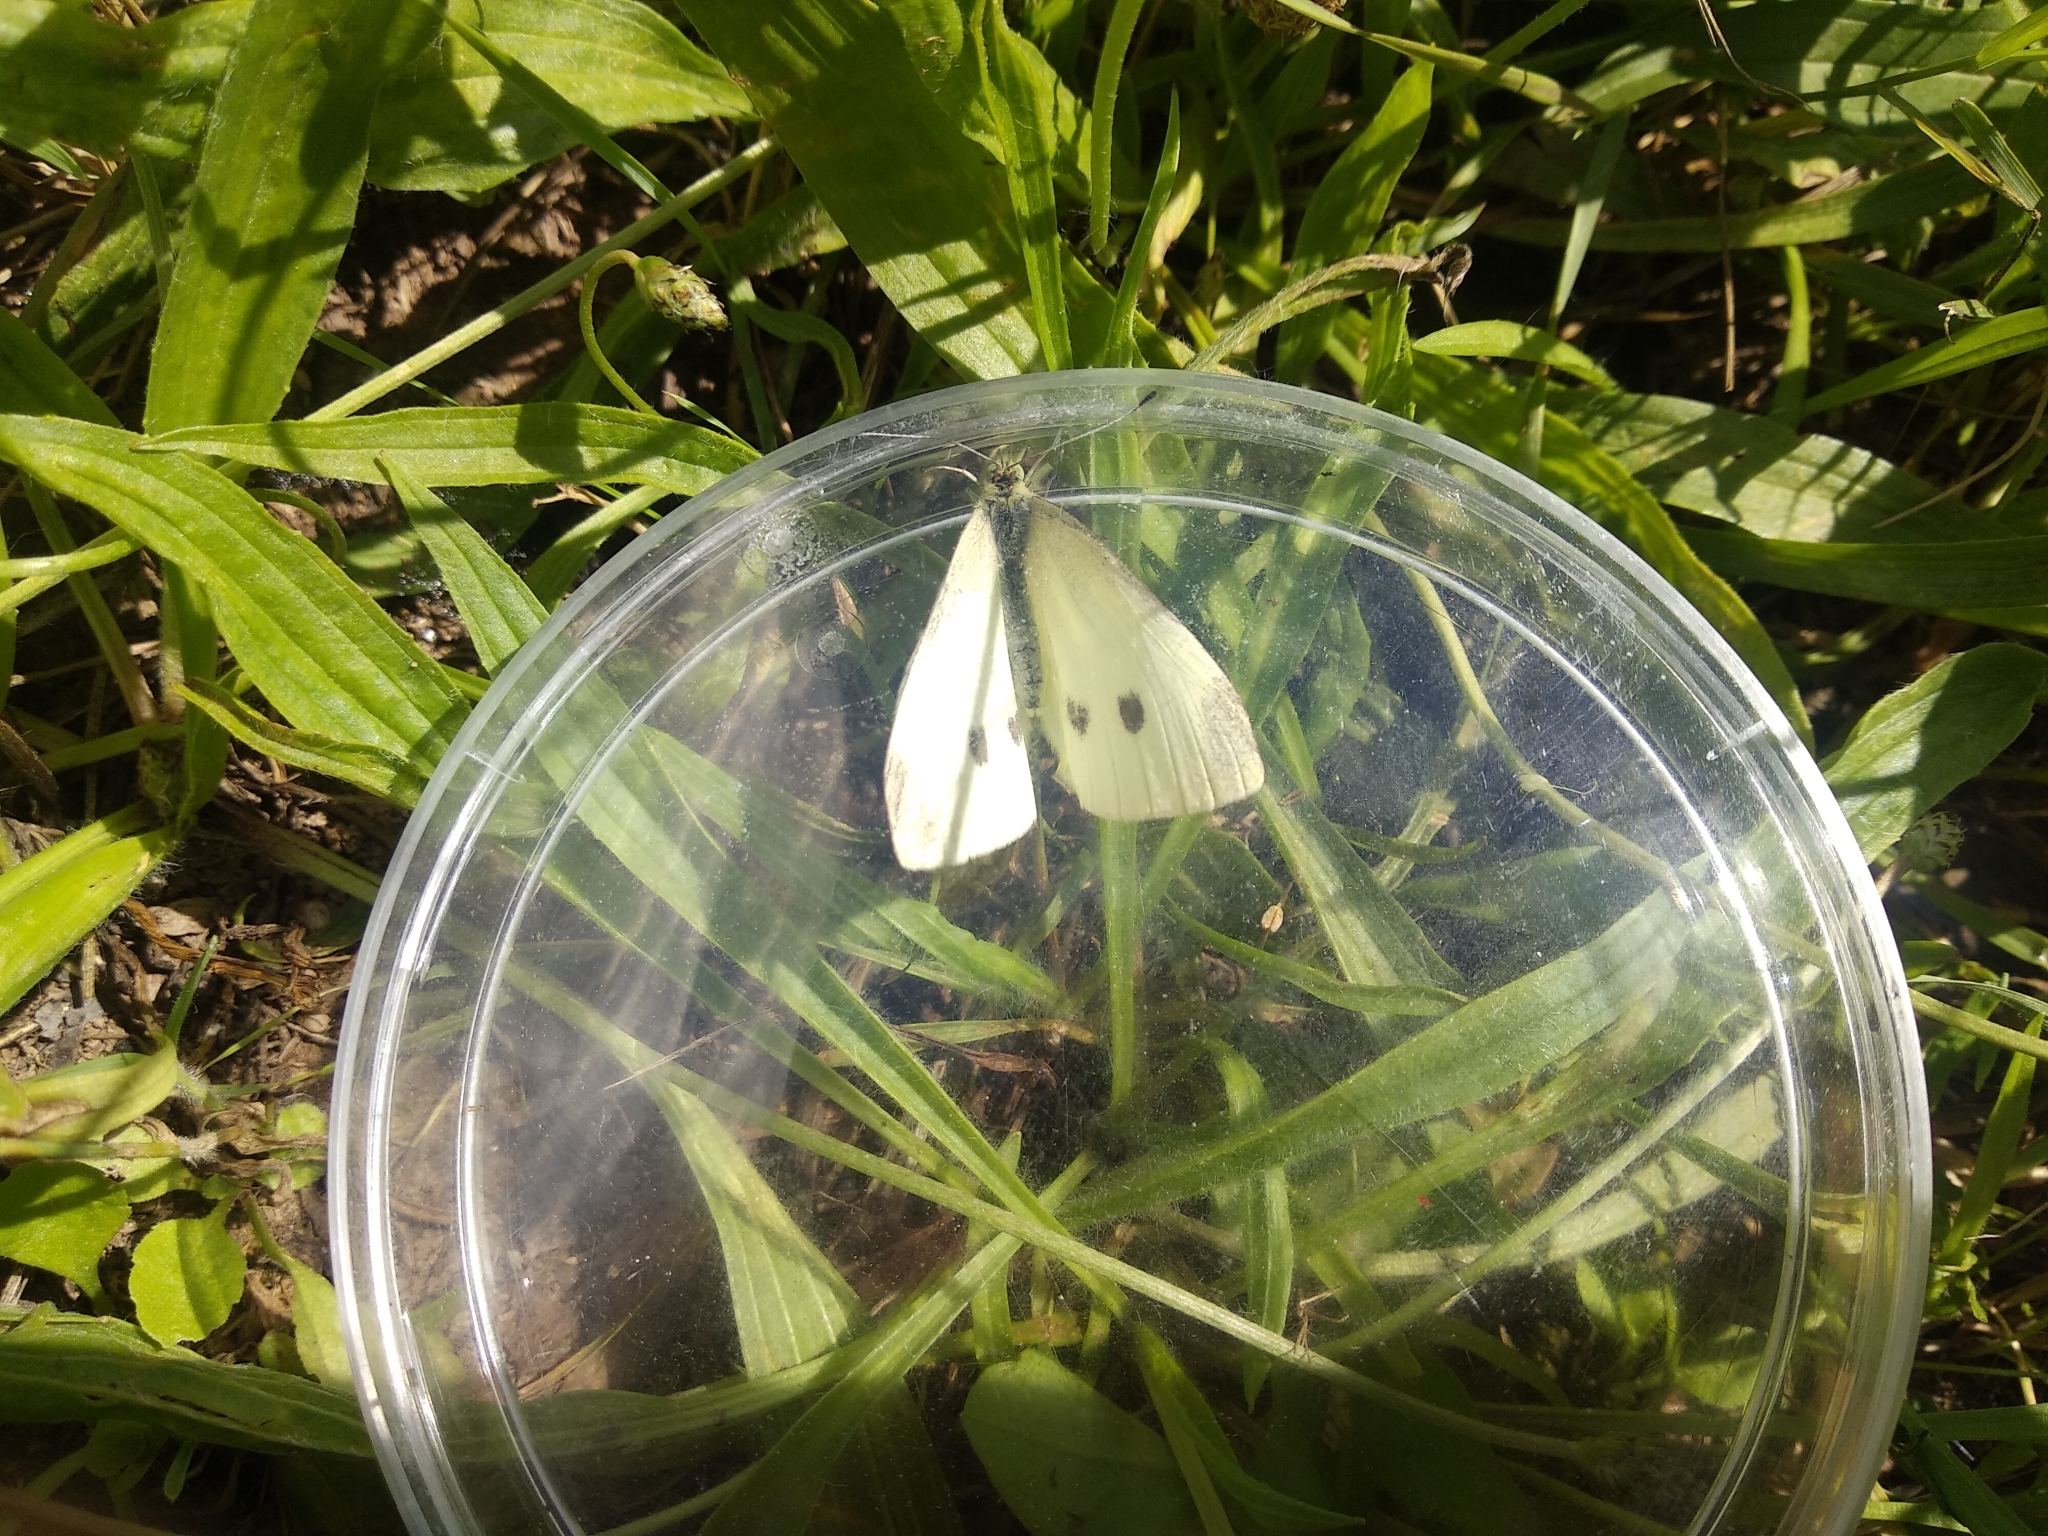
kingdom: Animalia
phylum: Arthropoda
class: Insecta
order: Lepidoptera
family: Pieridae
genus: Pieris
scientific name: Pieris rapae
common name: Small white
